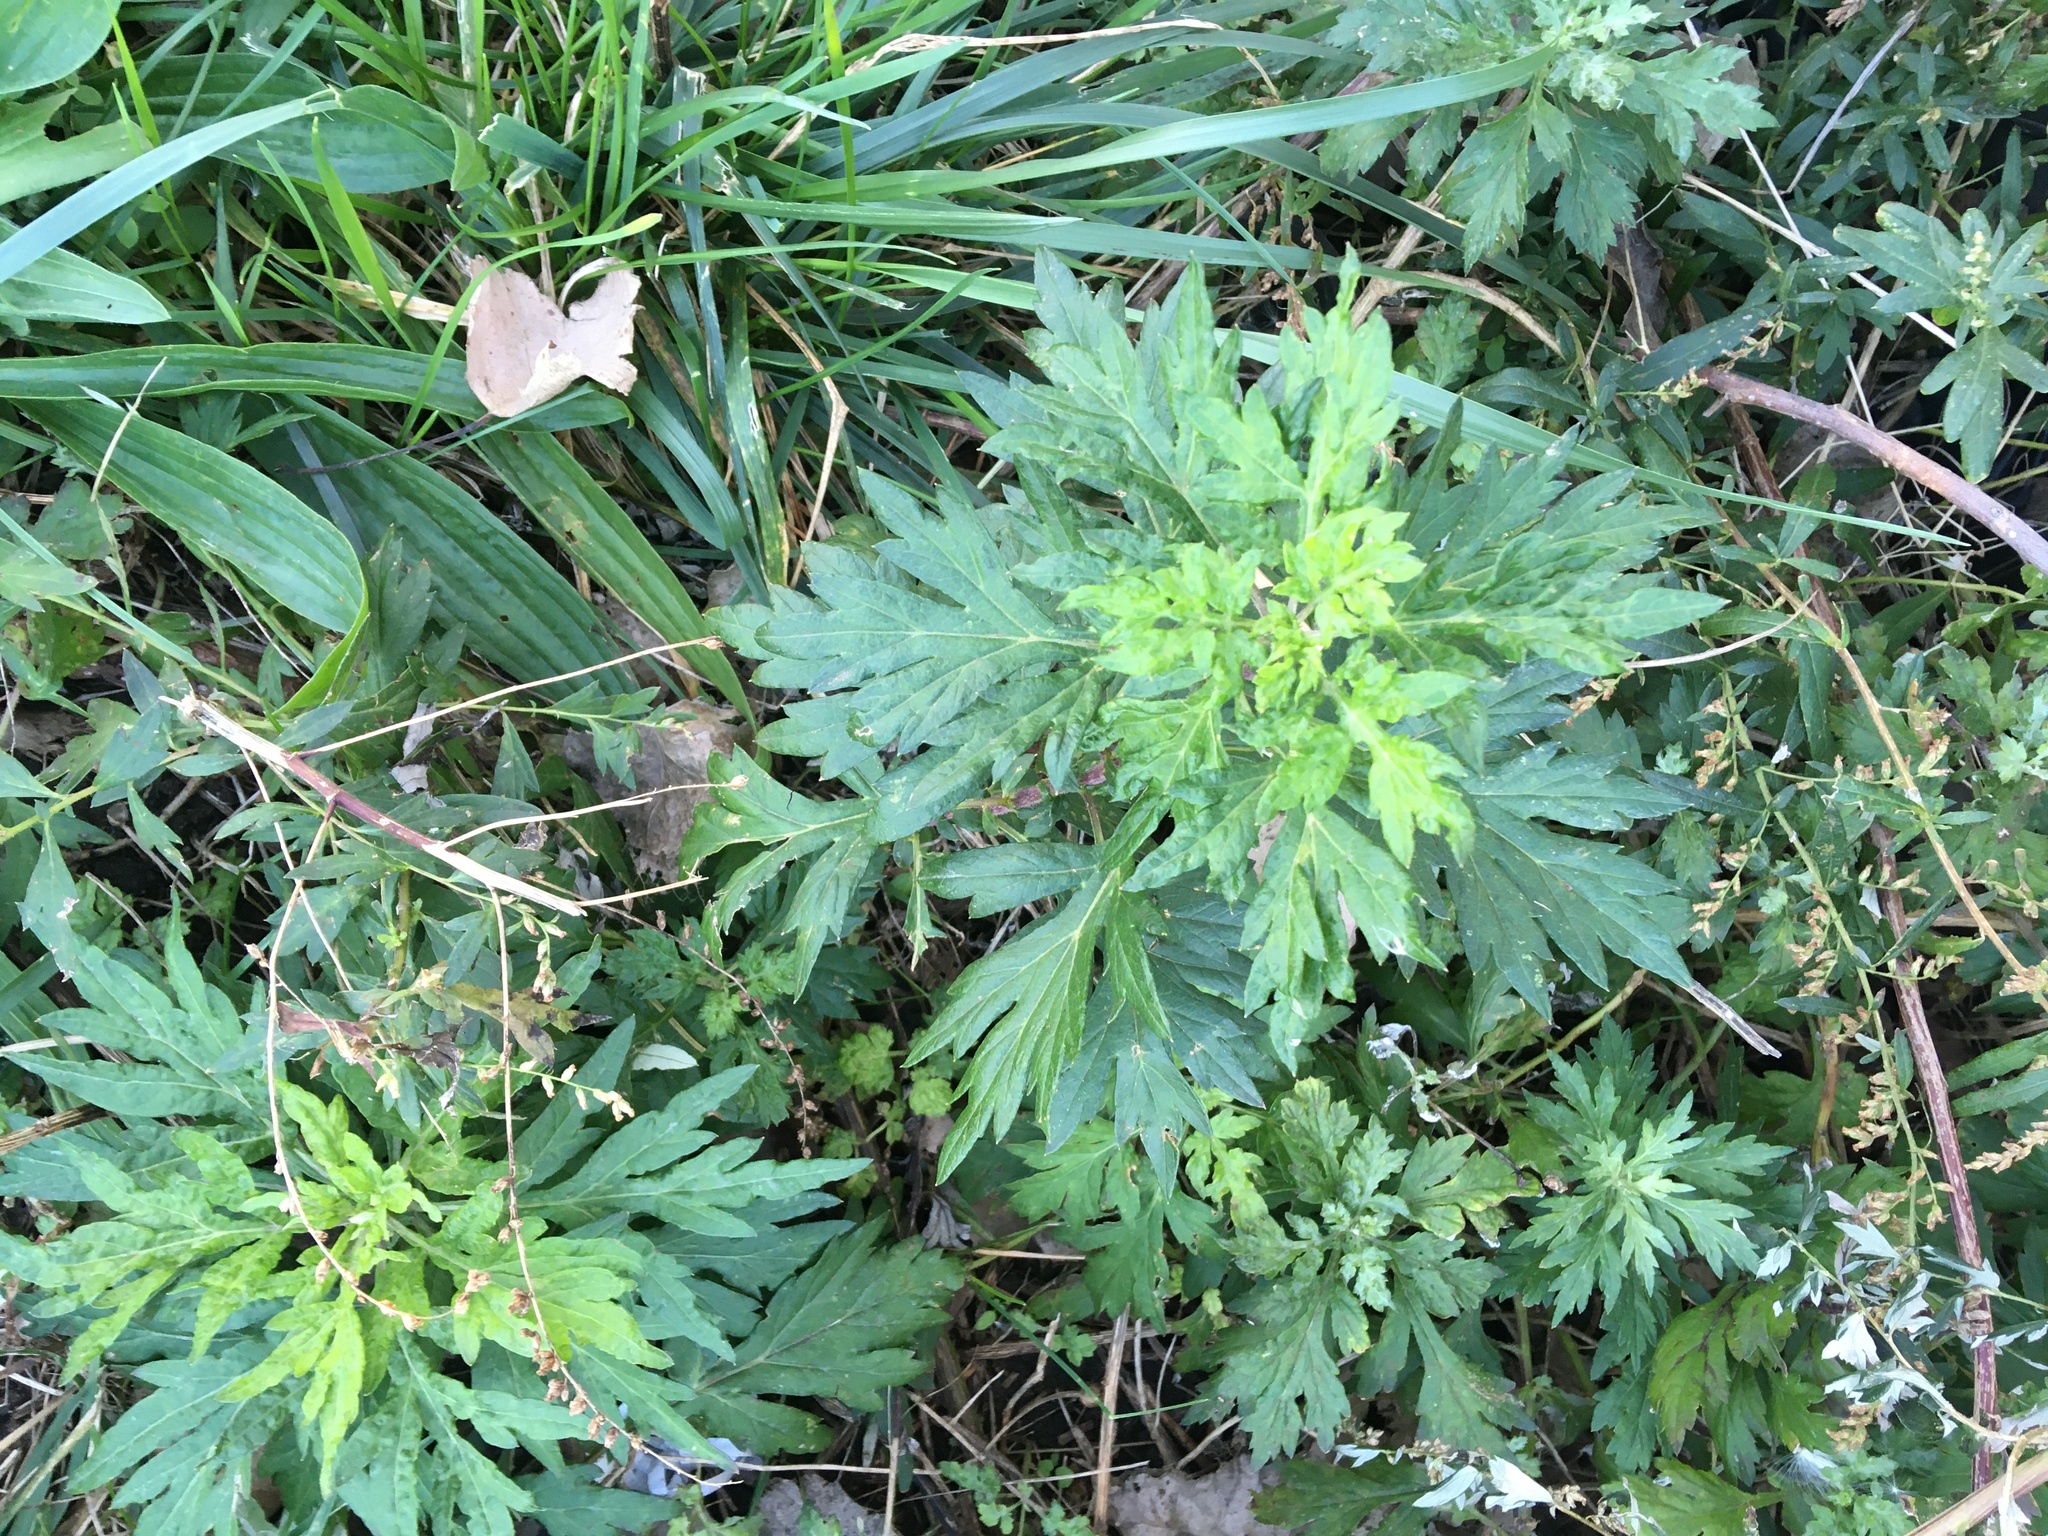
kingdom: Plantae
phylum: Tracheophyta
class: Magnoliopsida
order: Asterales
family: Asteraceae
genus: Artemisia
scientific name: Artemisia vulgaris
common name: Mugwort
